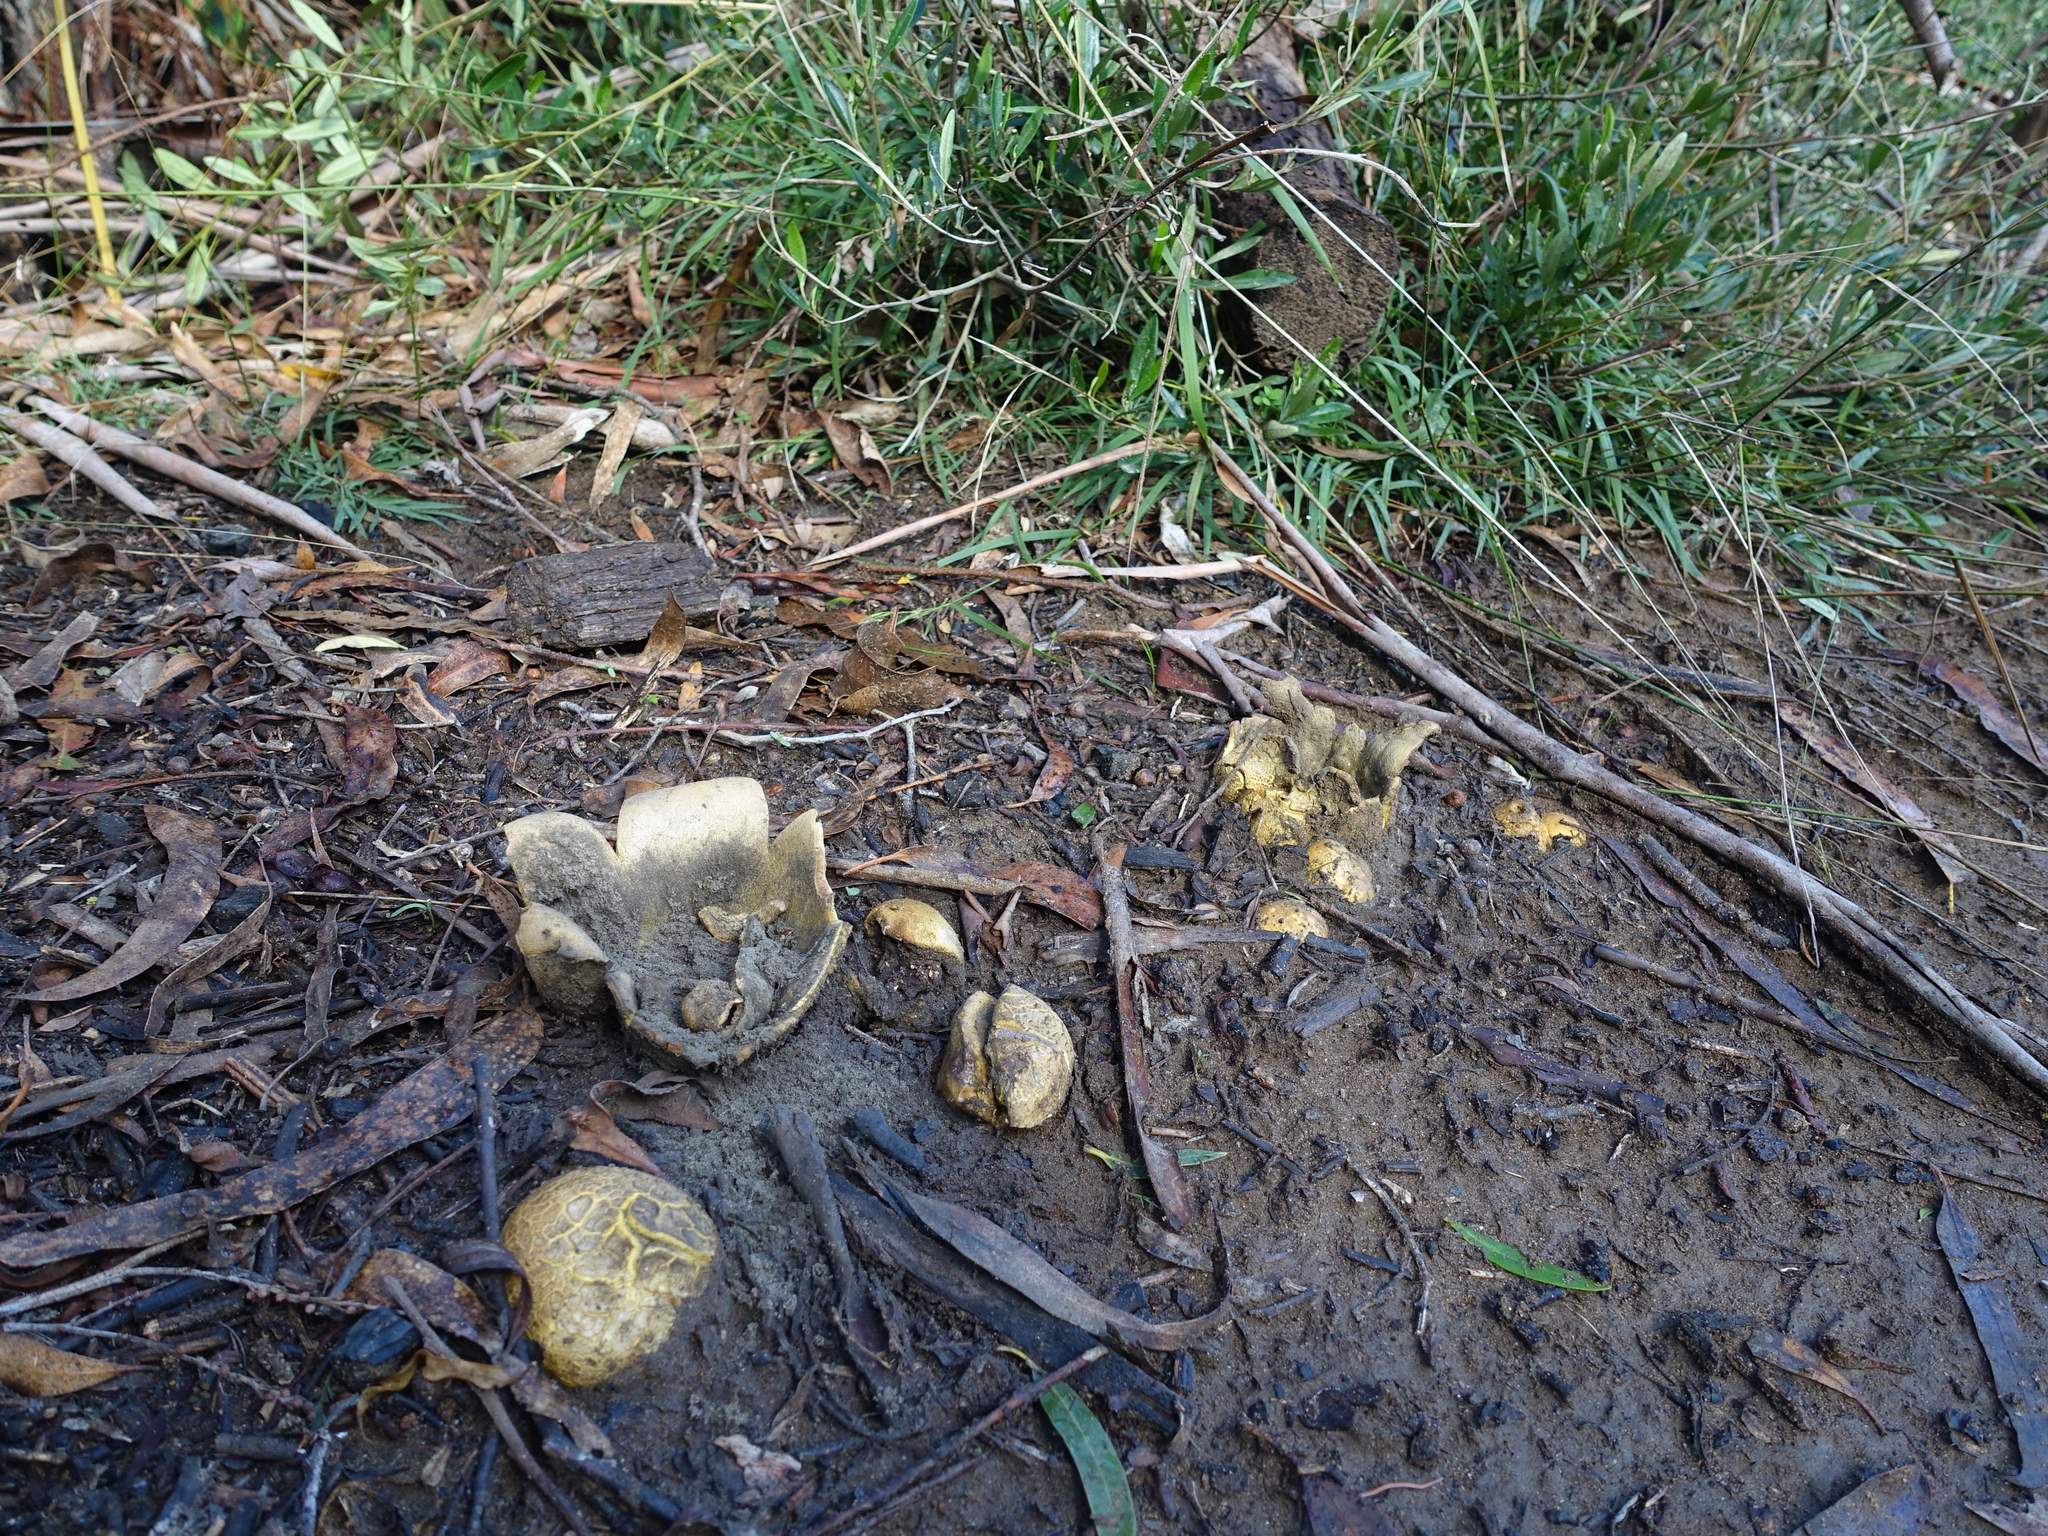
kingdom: Fungi
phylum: Basidiomycota
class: Agaricomycetes
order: Boletales
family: Sclerodermataceae
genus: Scleroderma
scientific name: Scleroderma cepa
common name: Onion earthball
